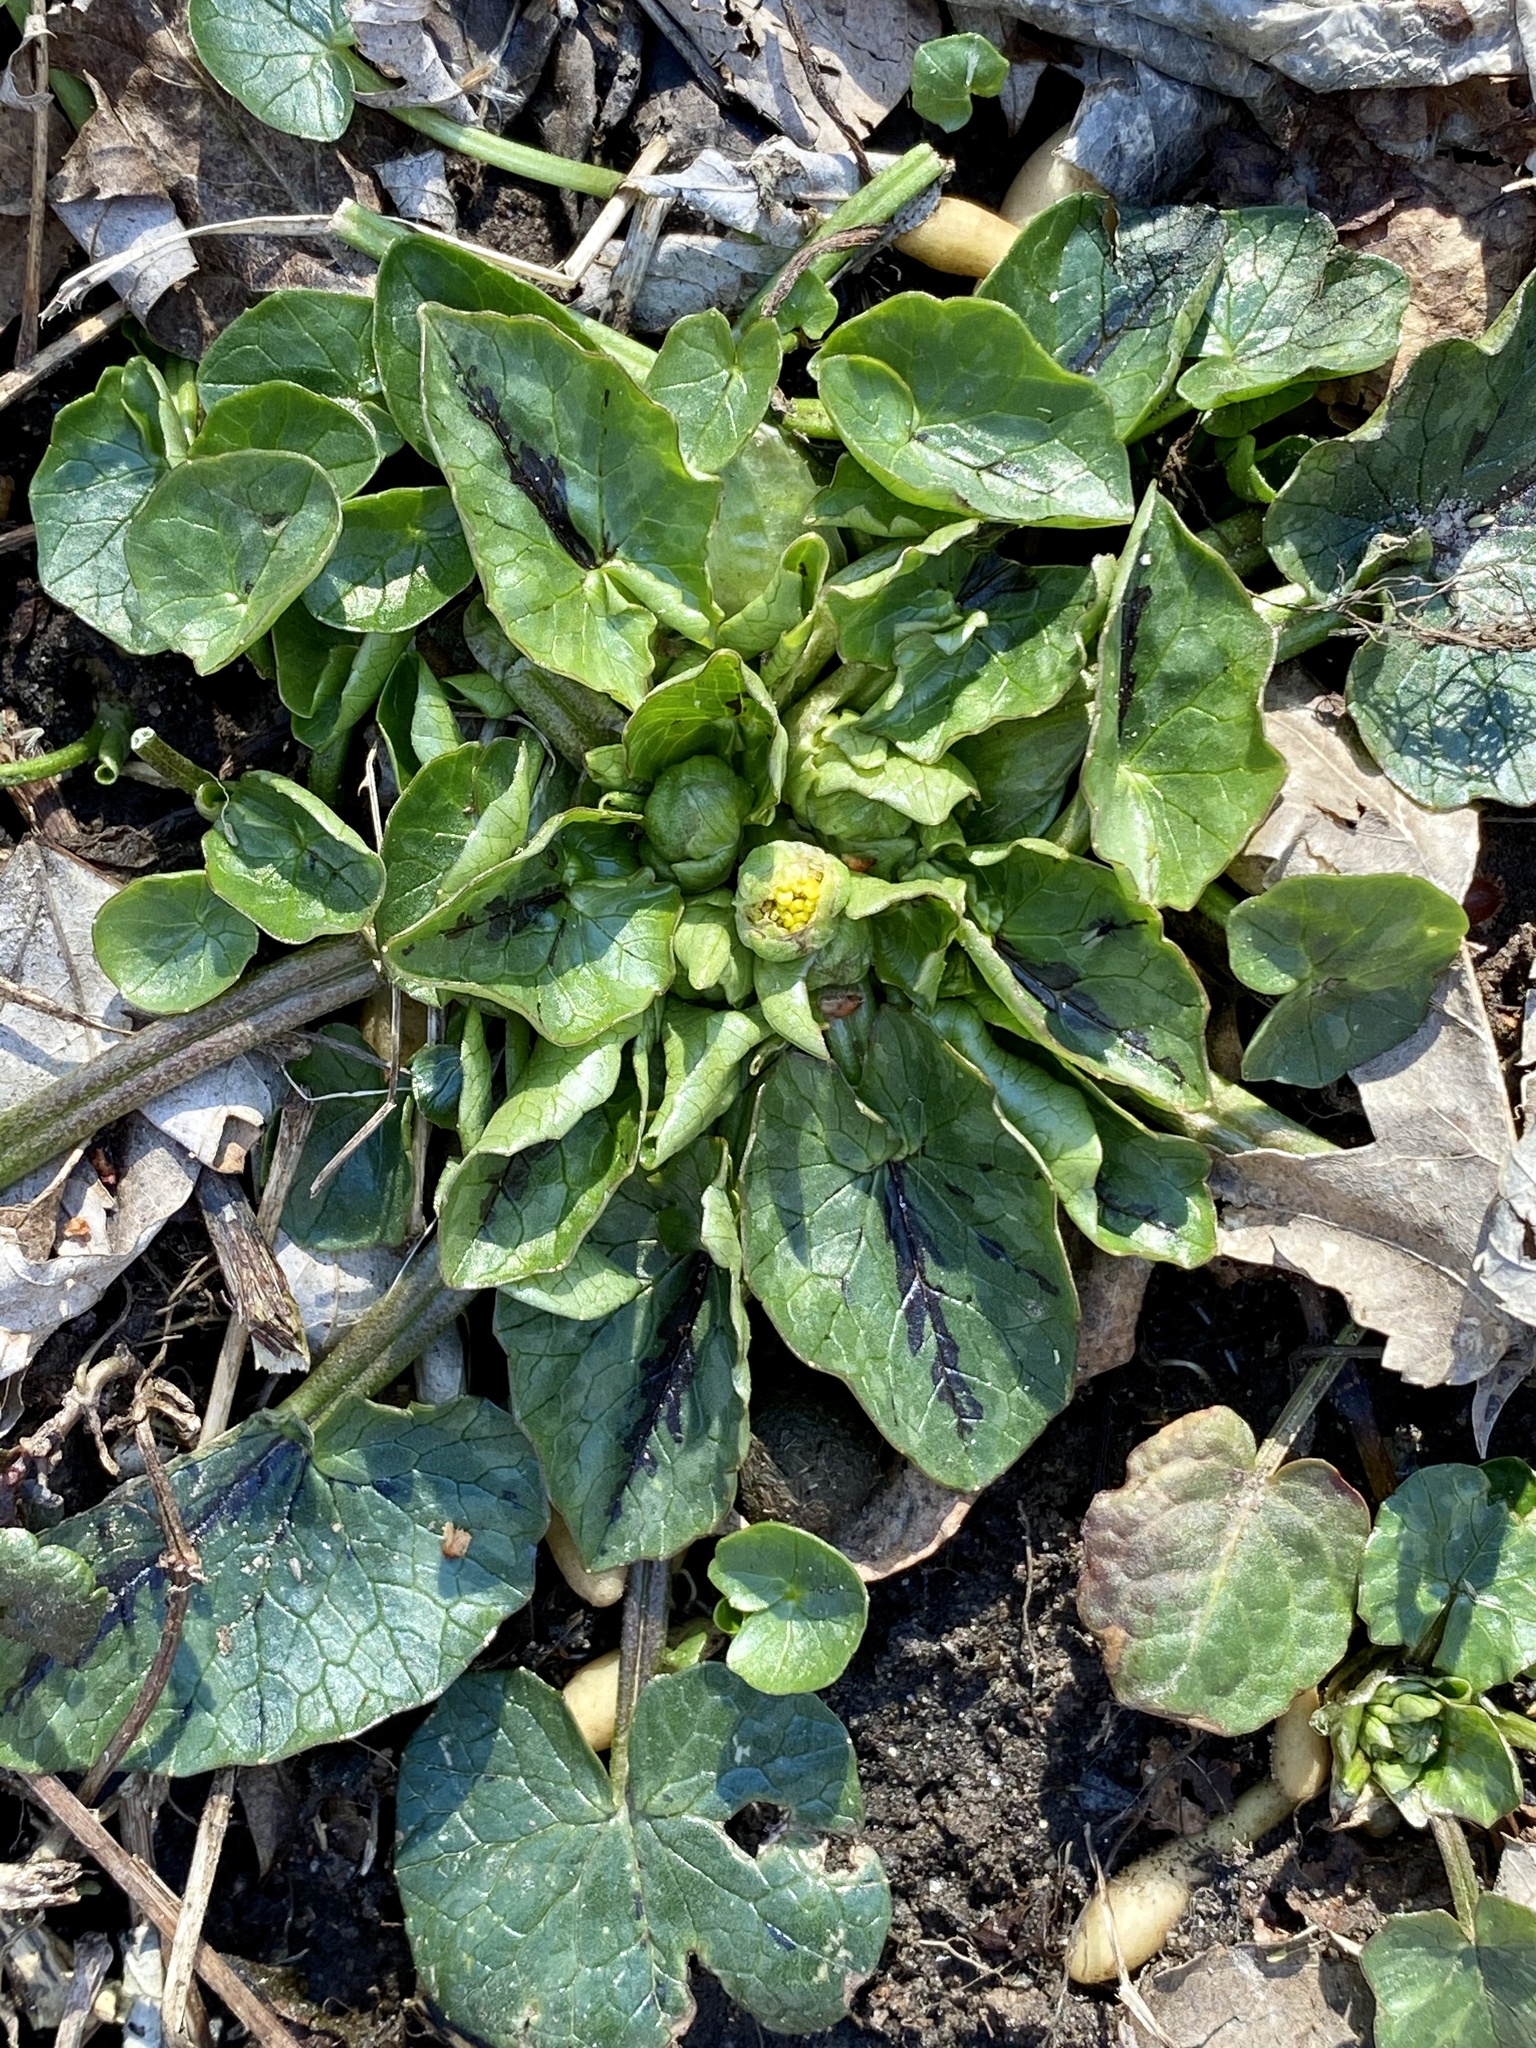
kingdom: Plantae
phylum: Tracheophyta
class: Magnoliopsida
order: Ranunculales
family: Ranunculaceae
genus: Ficaria
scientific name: Ficaria verna
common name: Lesser celandine
